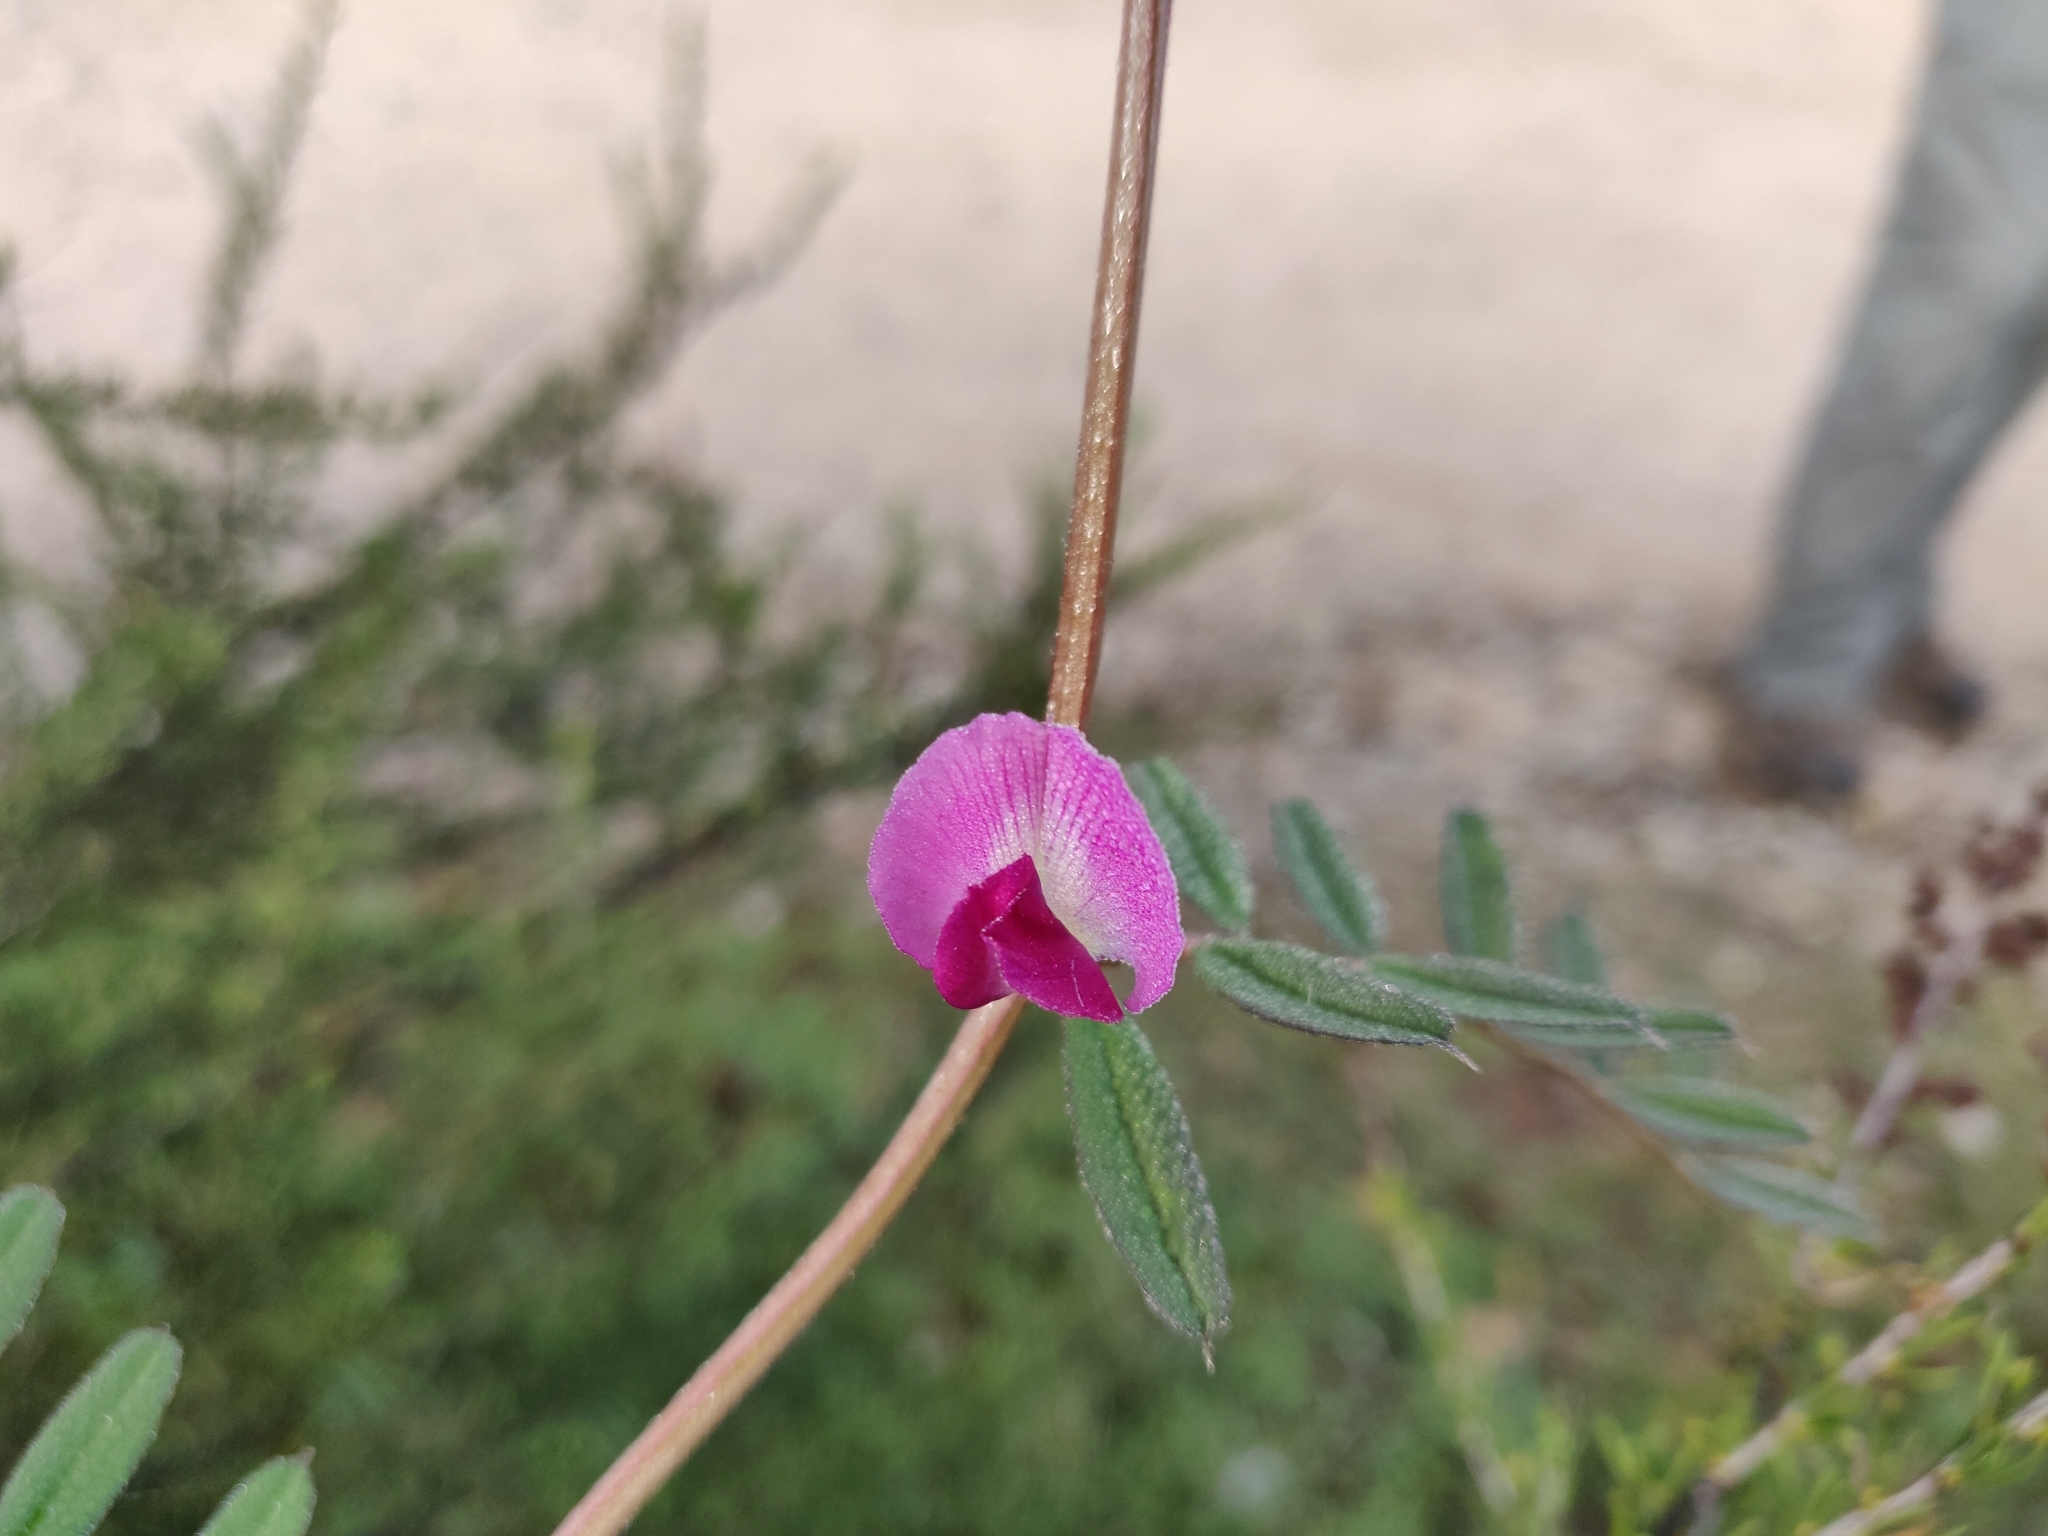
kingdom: Plantae
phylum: Tracheophyta
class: Magnoliopsida
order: Fabales
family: Fabaceae
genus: Vicia
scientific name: Vicia sativa
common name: Garden vetch
